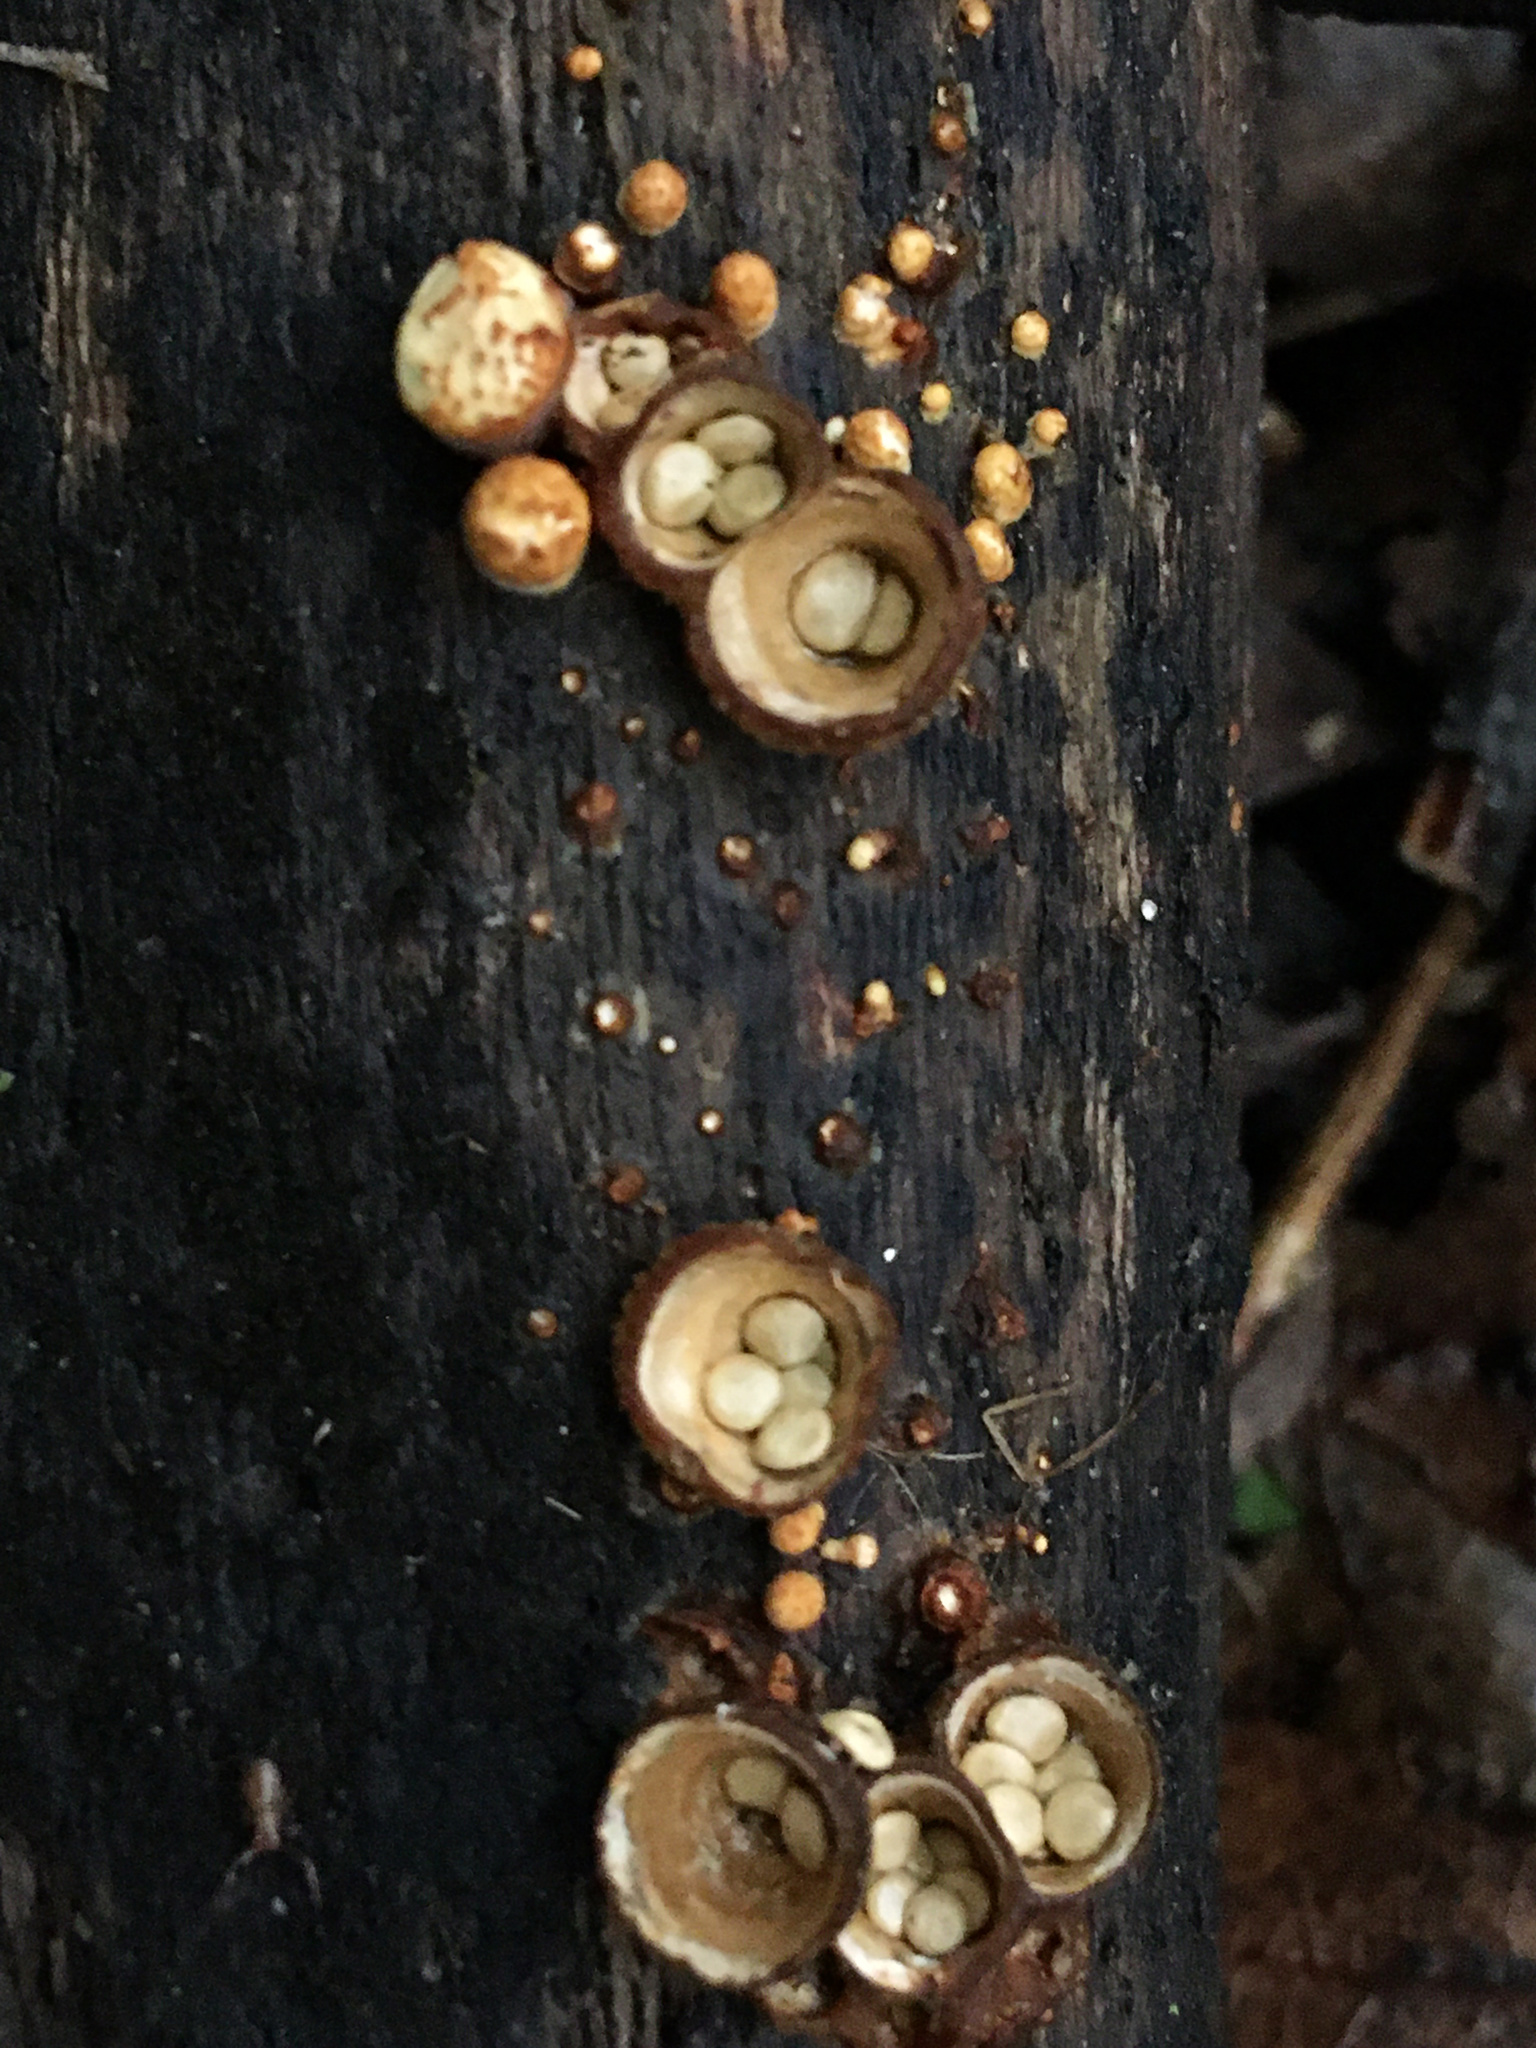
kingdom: Fungi
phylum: Basidiomycota
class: Agaricomycetes
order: Agaricales
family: Nidulariaceae
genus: Crucibulum
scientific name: Crucibulum laeve
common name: Common bird's nest
